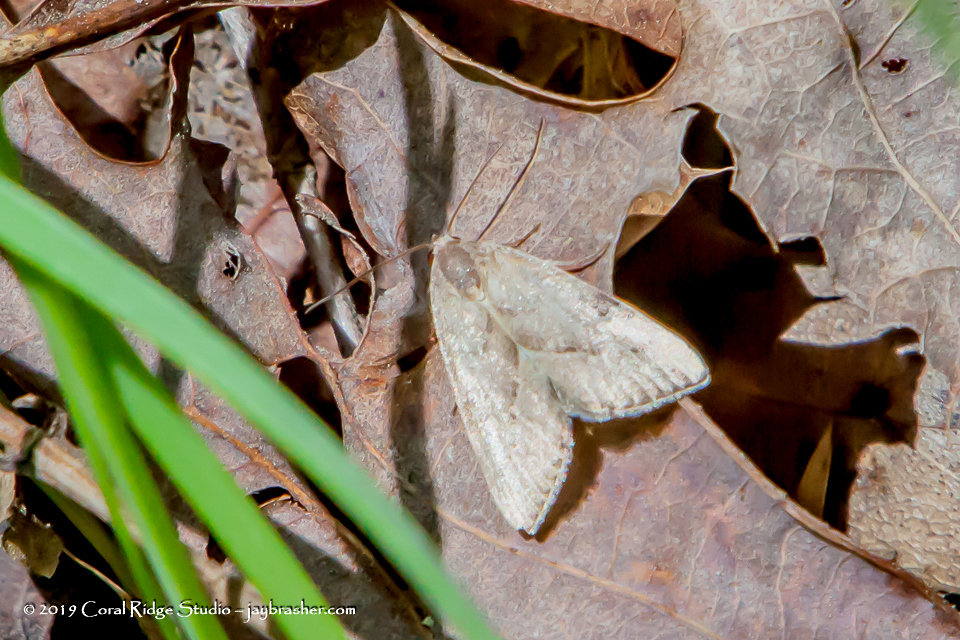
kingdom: Animalia
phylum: Arthropoda
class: Insecta
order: Lepidoptera
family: Noctuidae
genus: Galgula
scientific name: Galgula partita
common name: Wedgeling
